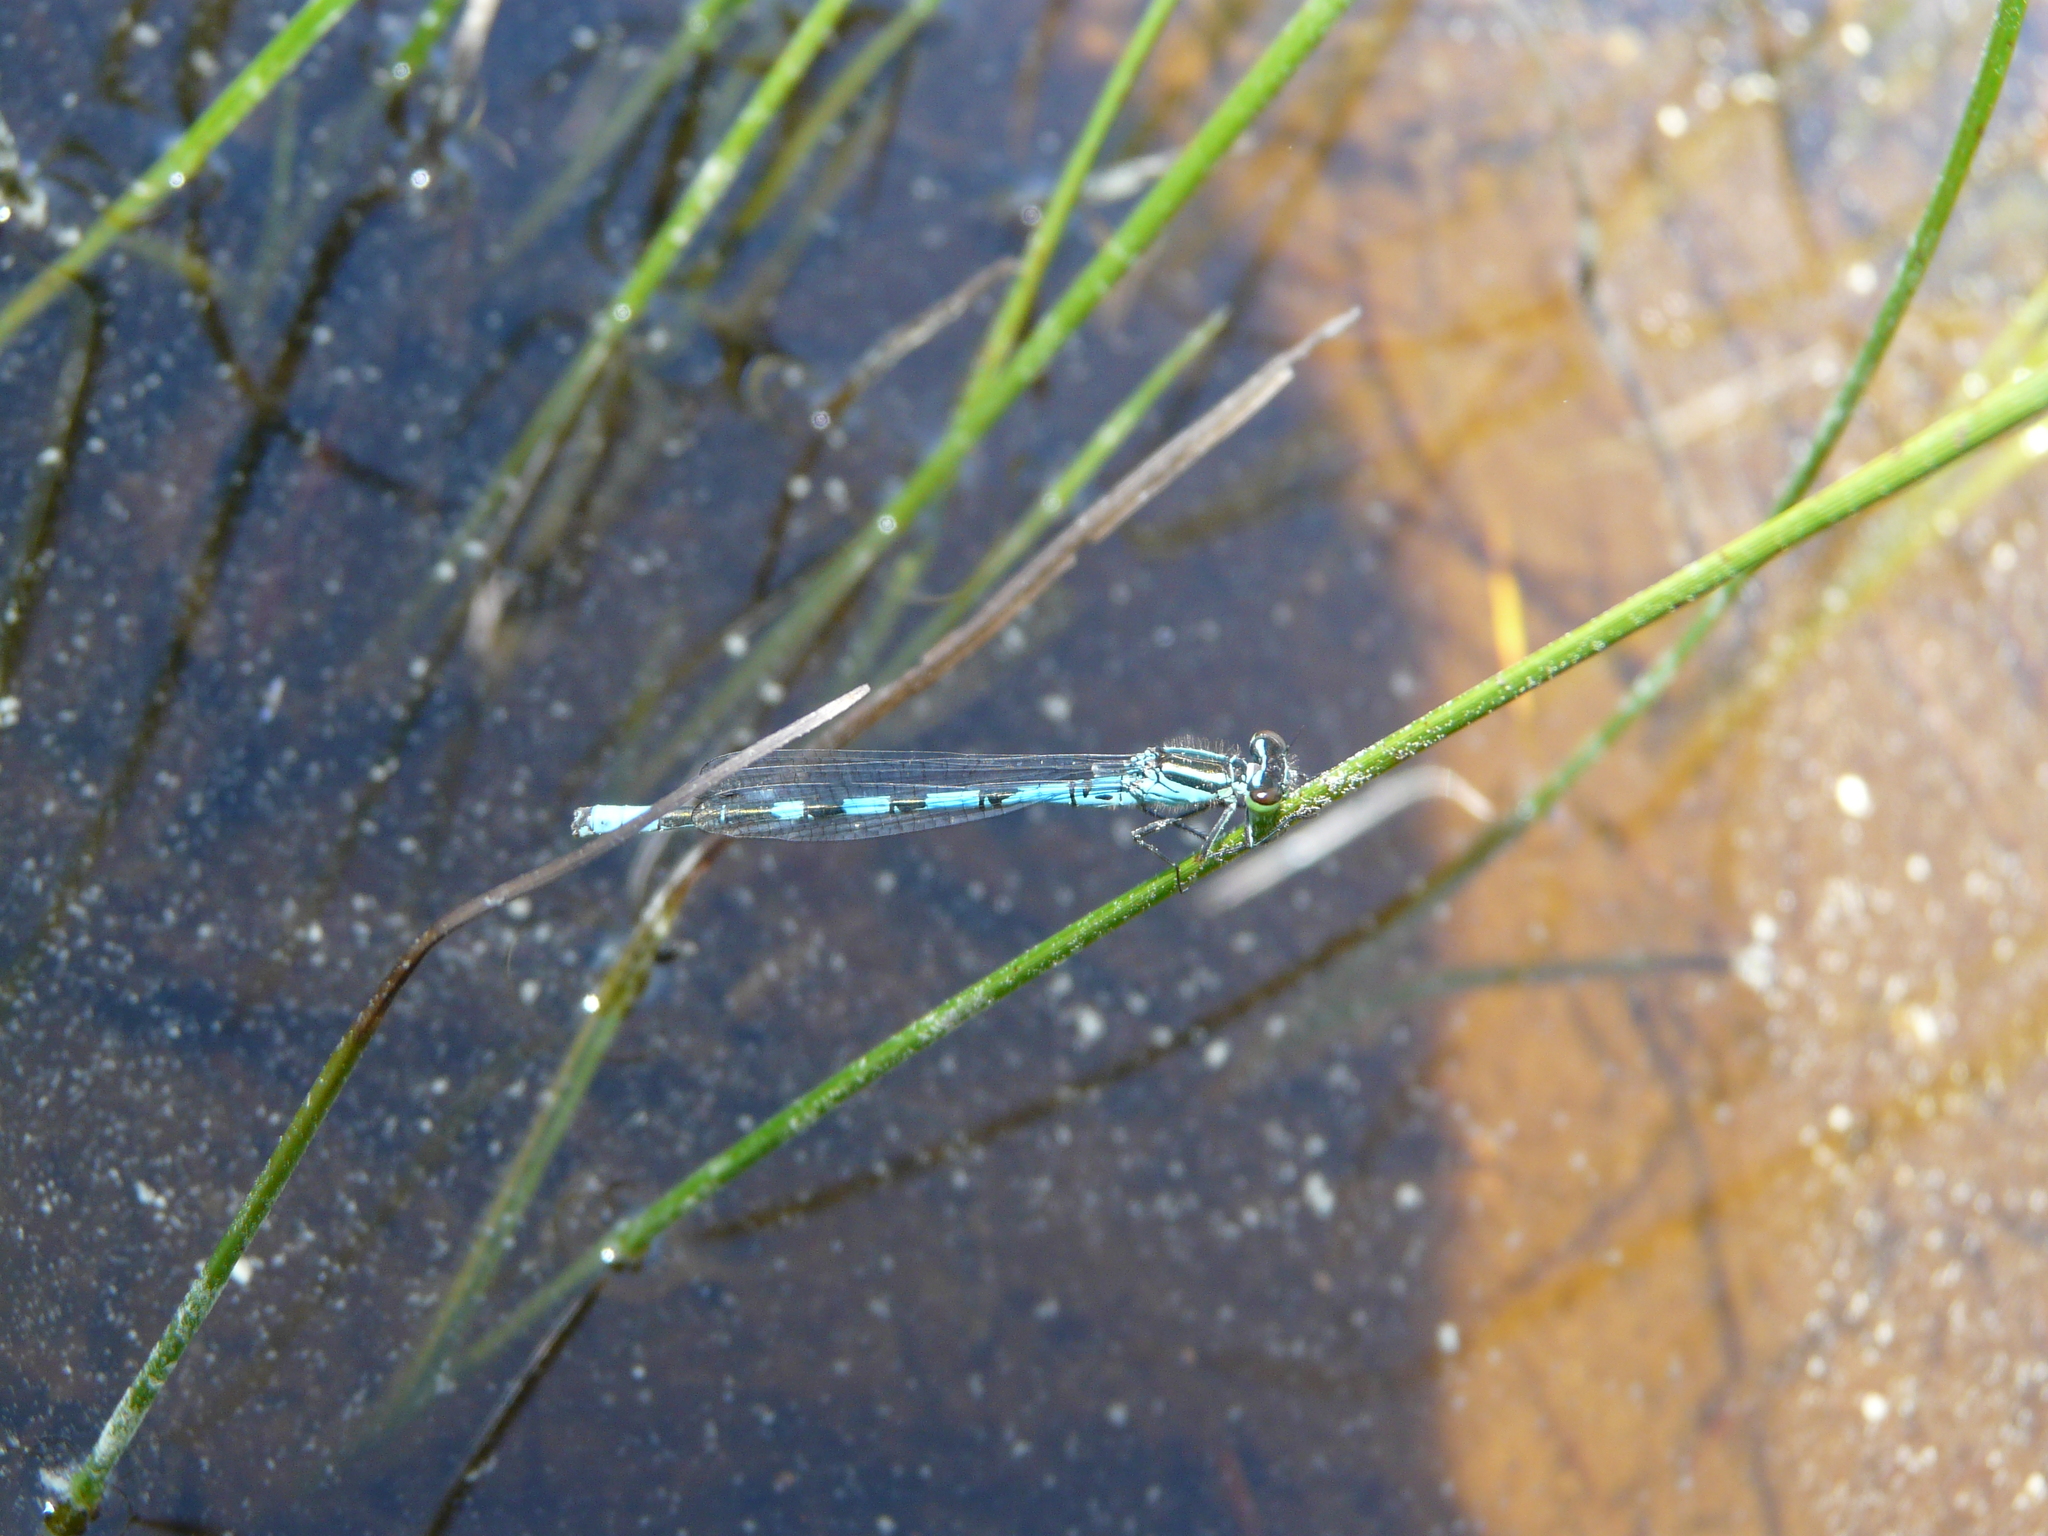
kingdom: Animalia
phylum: Arthropoda
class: Insecta
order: Odonata
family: Coenagrionidae
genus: Coenagrion
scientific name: Coenagrion hastulatum
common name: Spearhead bluet
